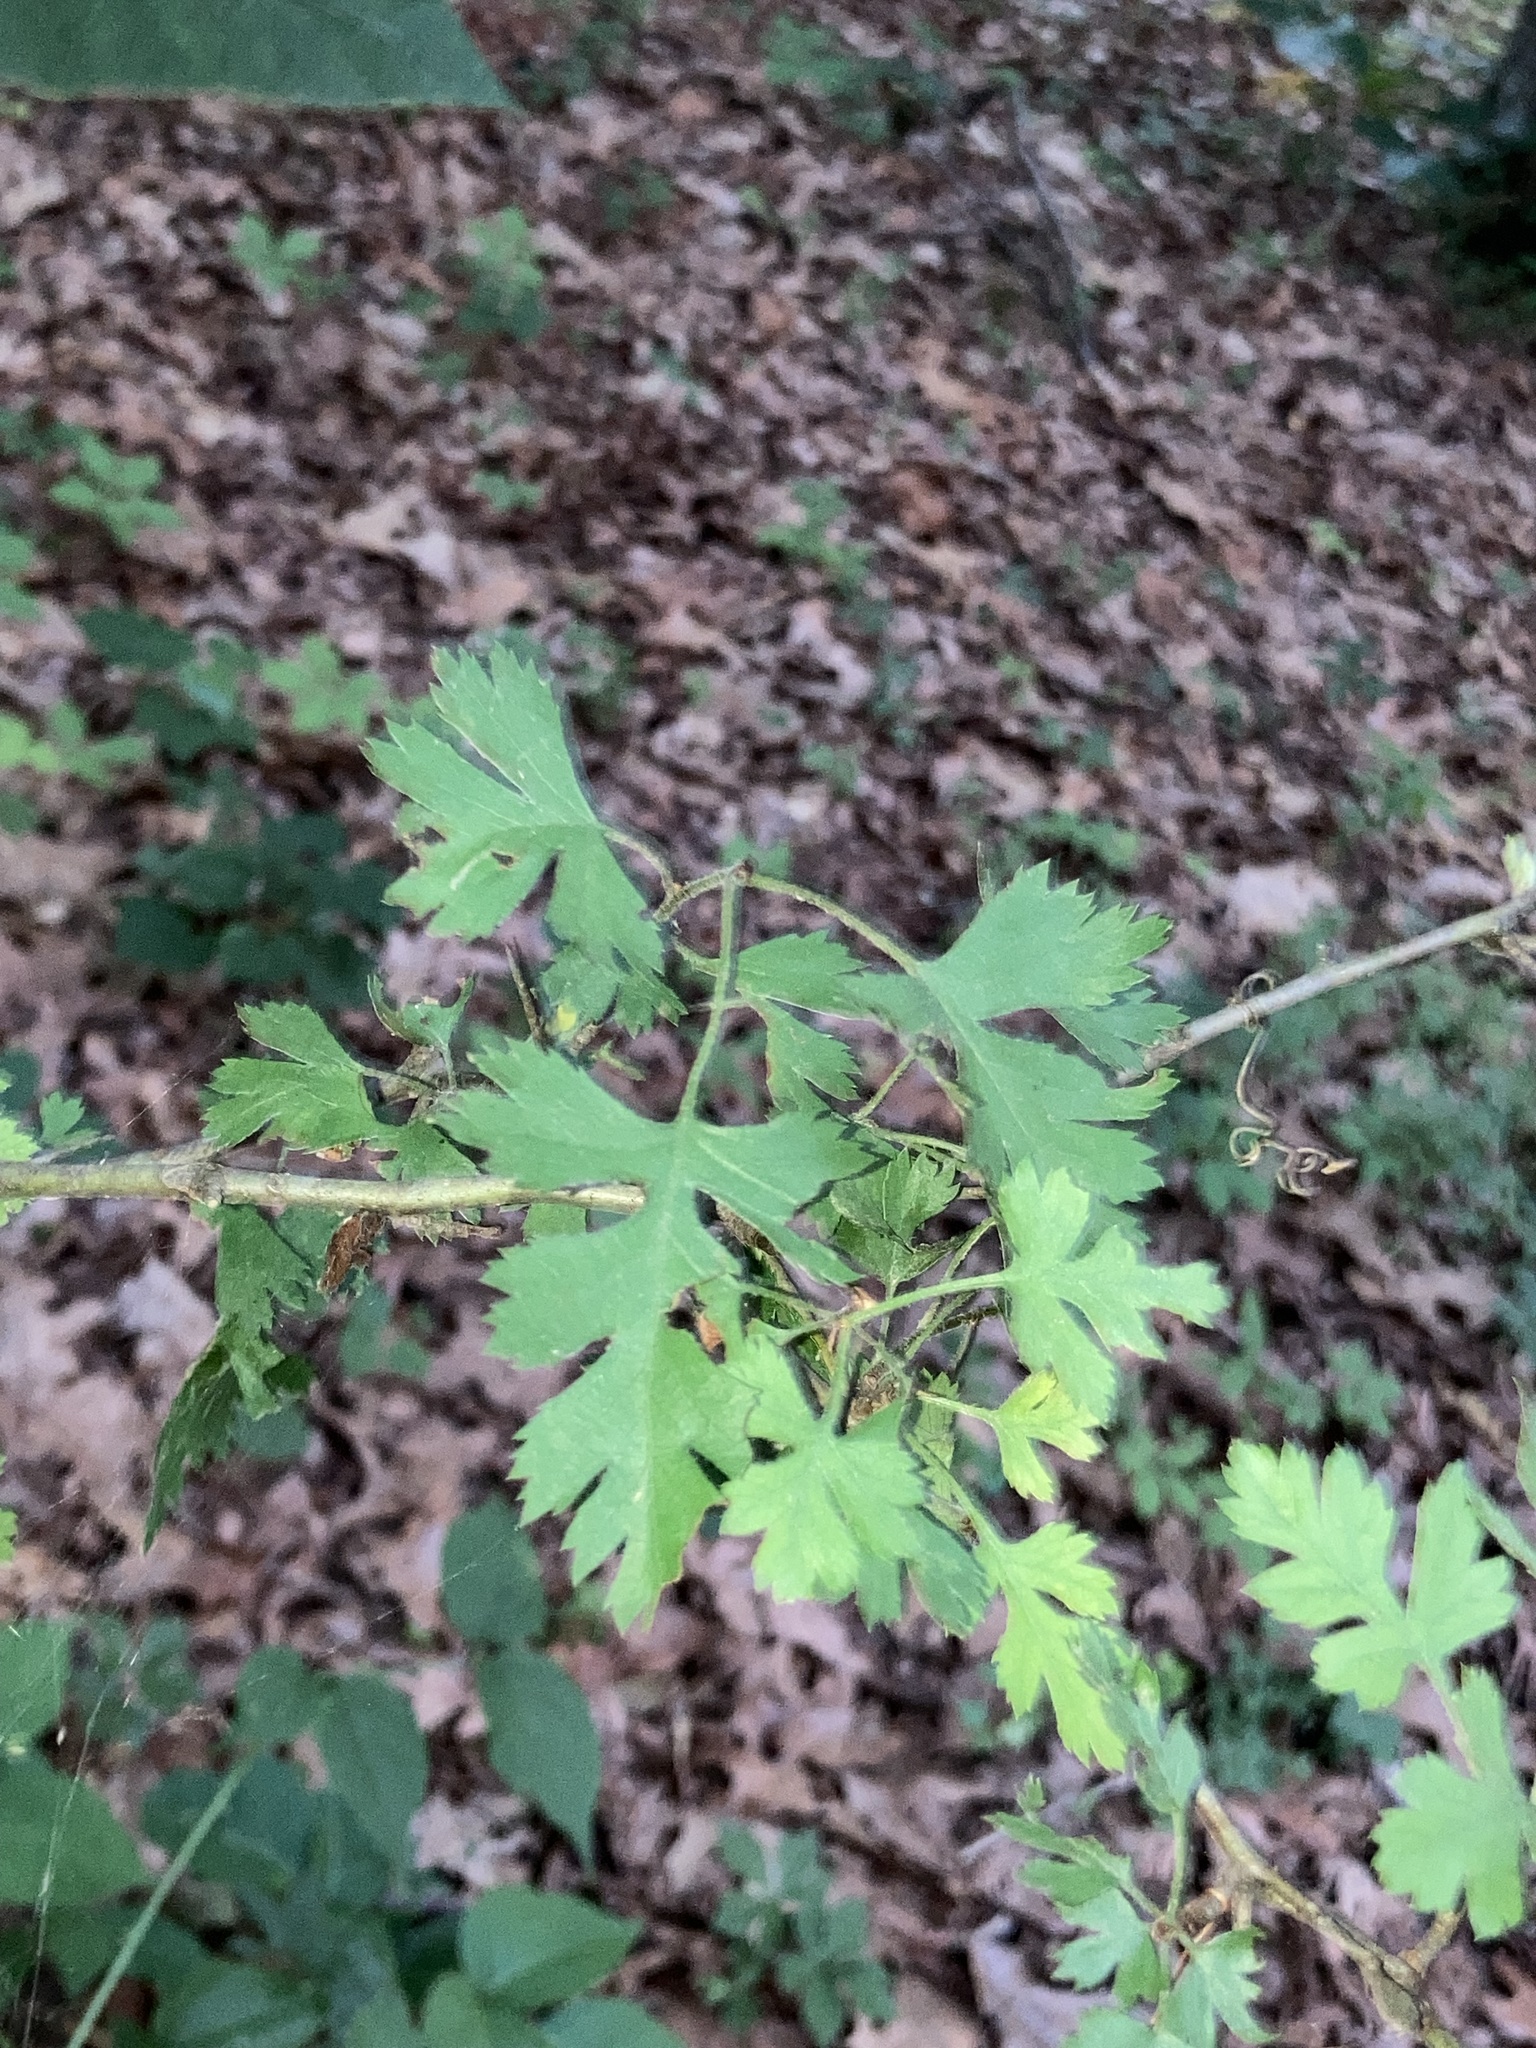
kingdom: Plantae
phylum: Tracheophyta
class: Magnoliopsida
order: Rosales
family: Rosaceae
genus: Crataegus
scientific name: Crataegus marshallii
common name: Parsley-hawthorn
